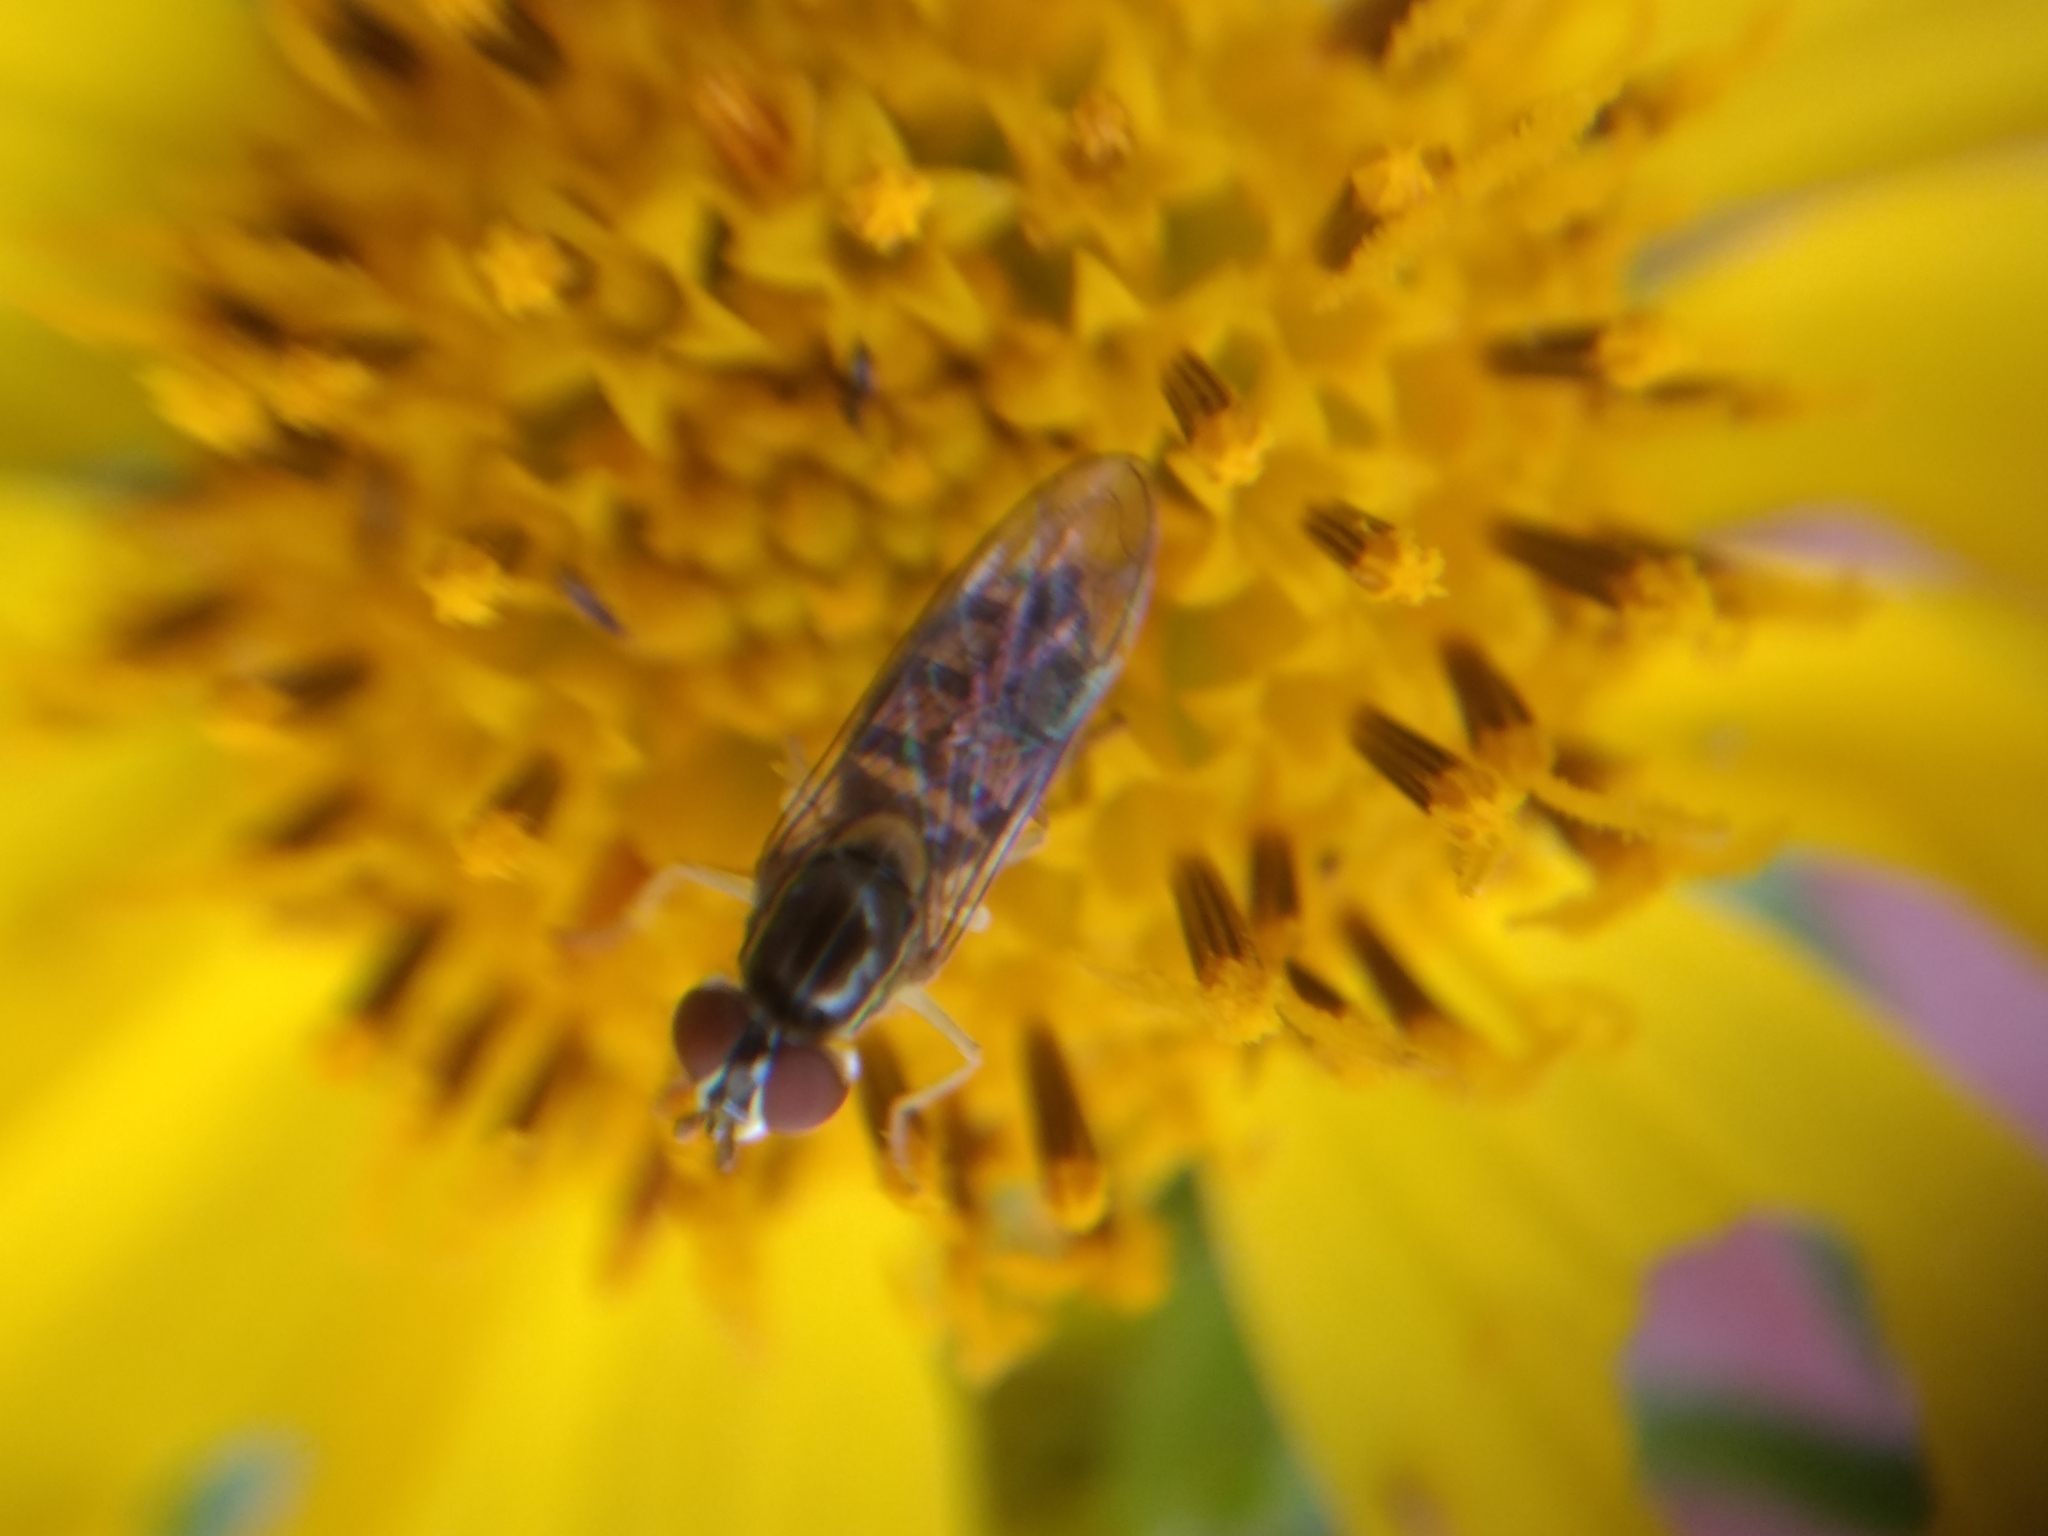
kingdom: Animalia
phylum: Arthropoda
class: Insecta
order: Diptera
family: Syrphidae
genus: Toxomerus
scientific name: Toxomerus marginatus
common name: Syrphid fly
